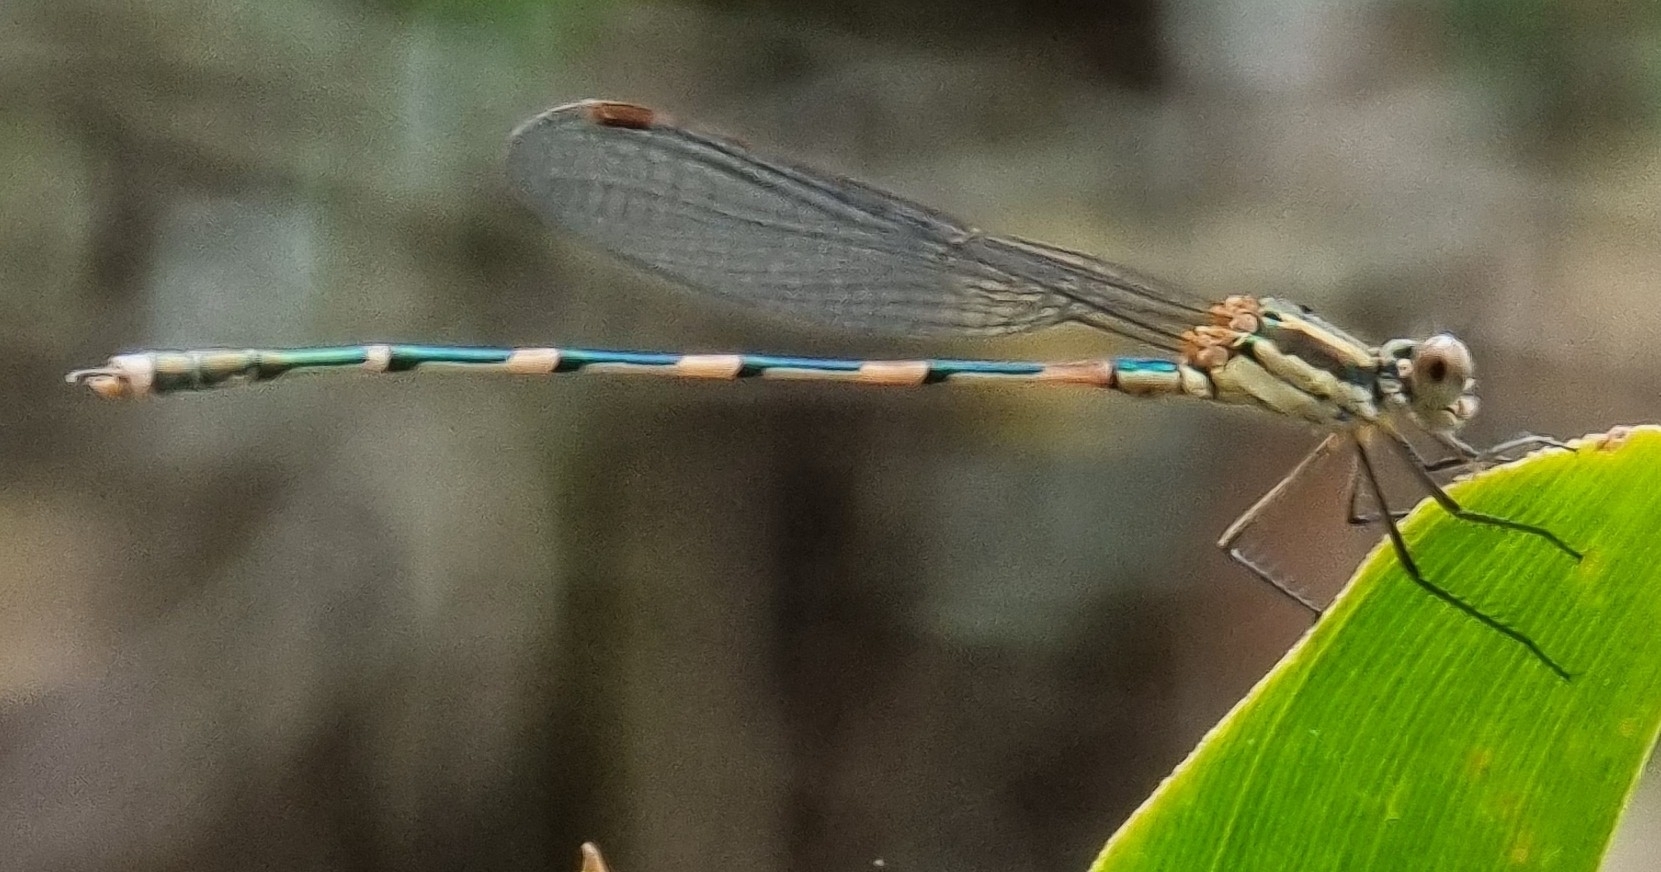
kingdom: Animalia
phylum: Arthropoda
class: Insecta
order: Odonata
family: Lestidae
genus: Austrolestes
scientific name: Austrolestes leda
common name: Wandering ringtail
